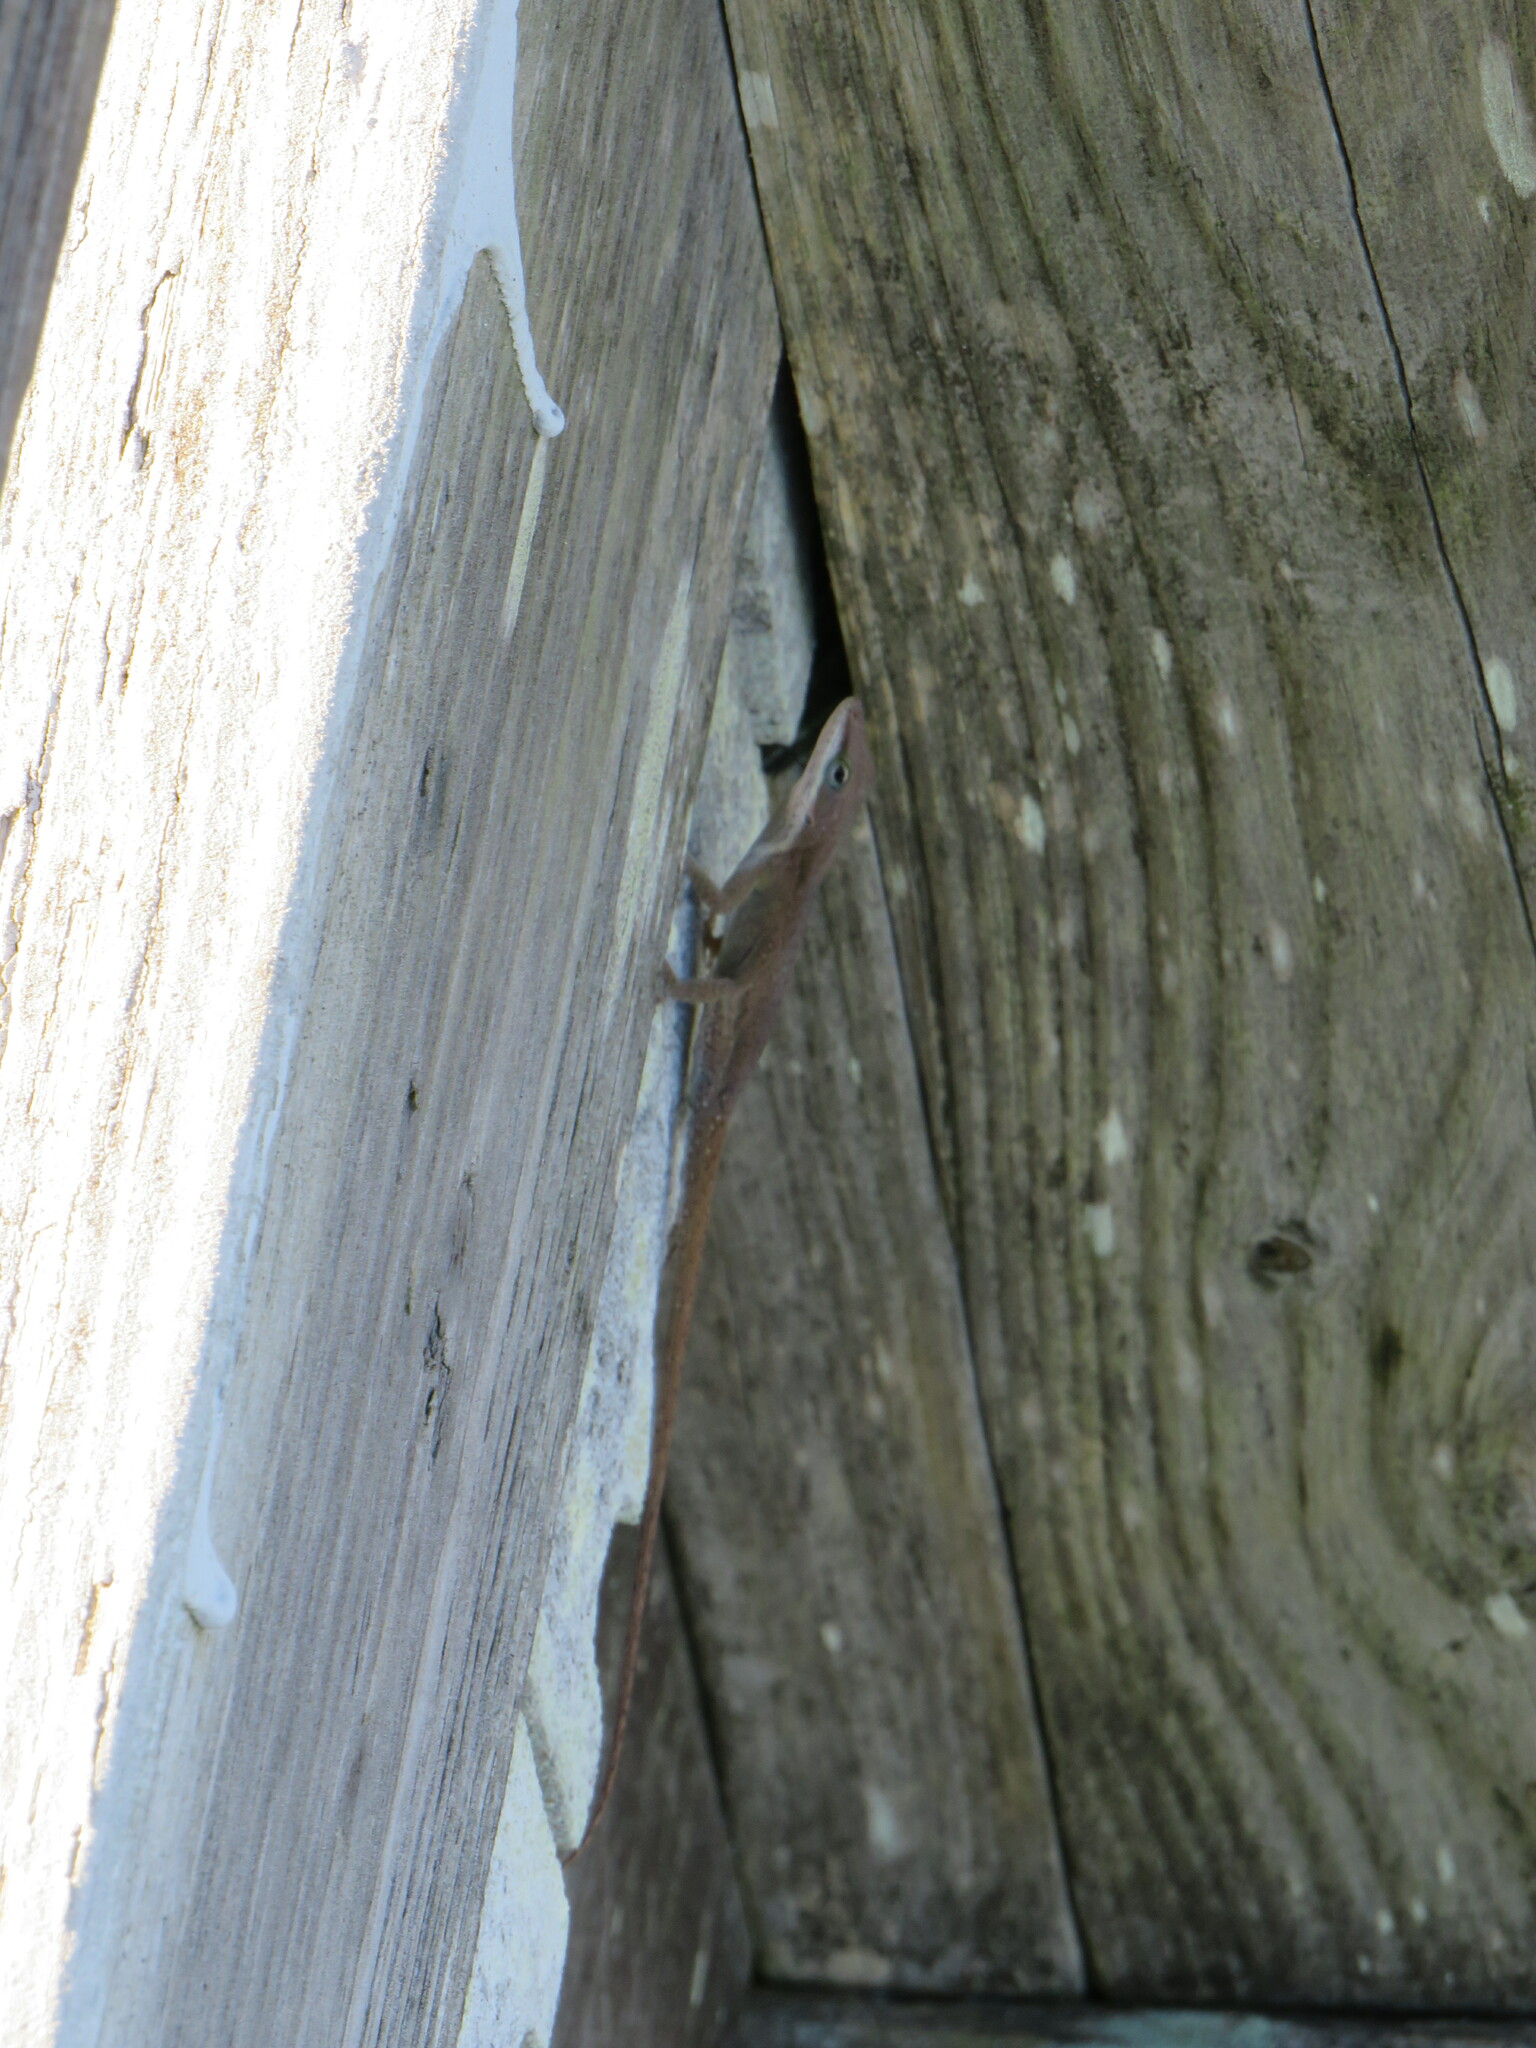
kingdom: Animalia
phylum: Chordata
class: Squamata
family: Dactyloidae
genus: Anolis
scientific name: Anolis carolinensis
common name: Green anole
